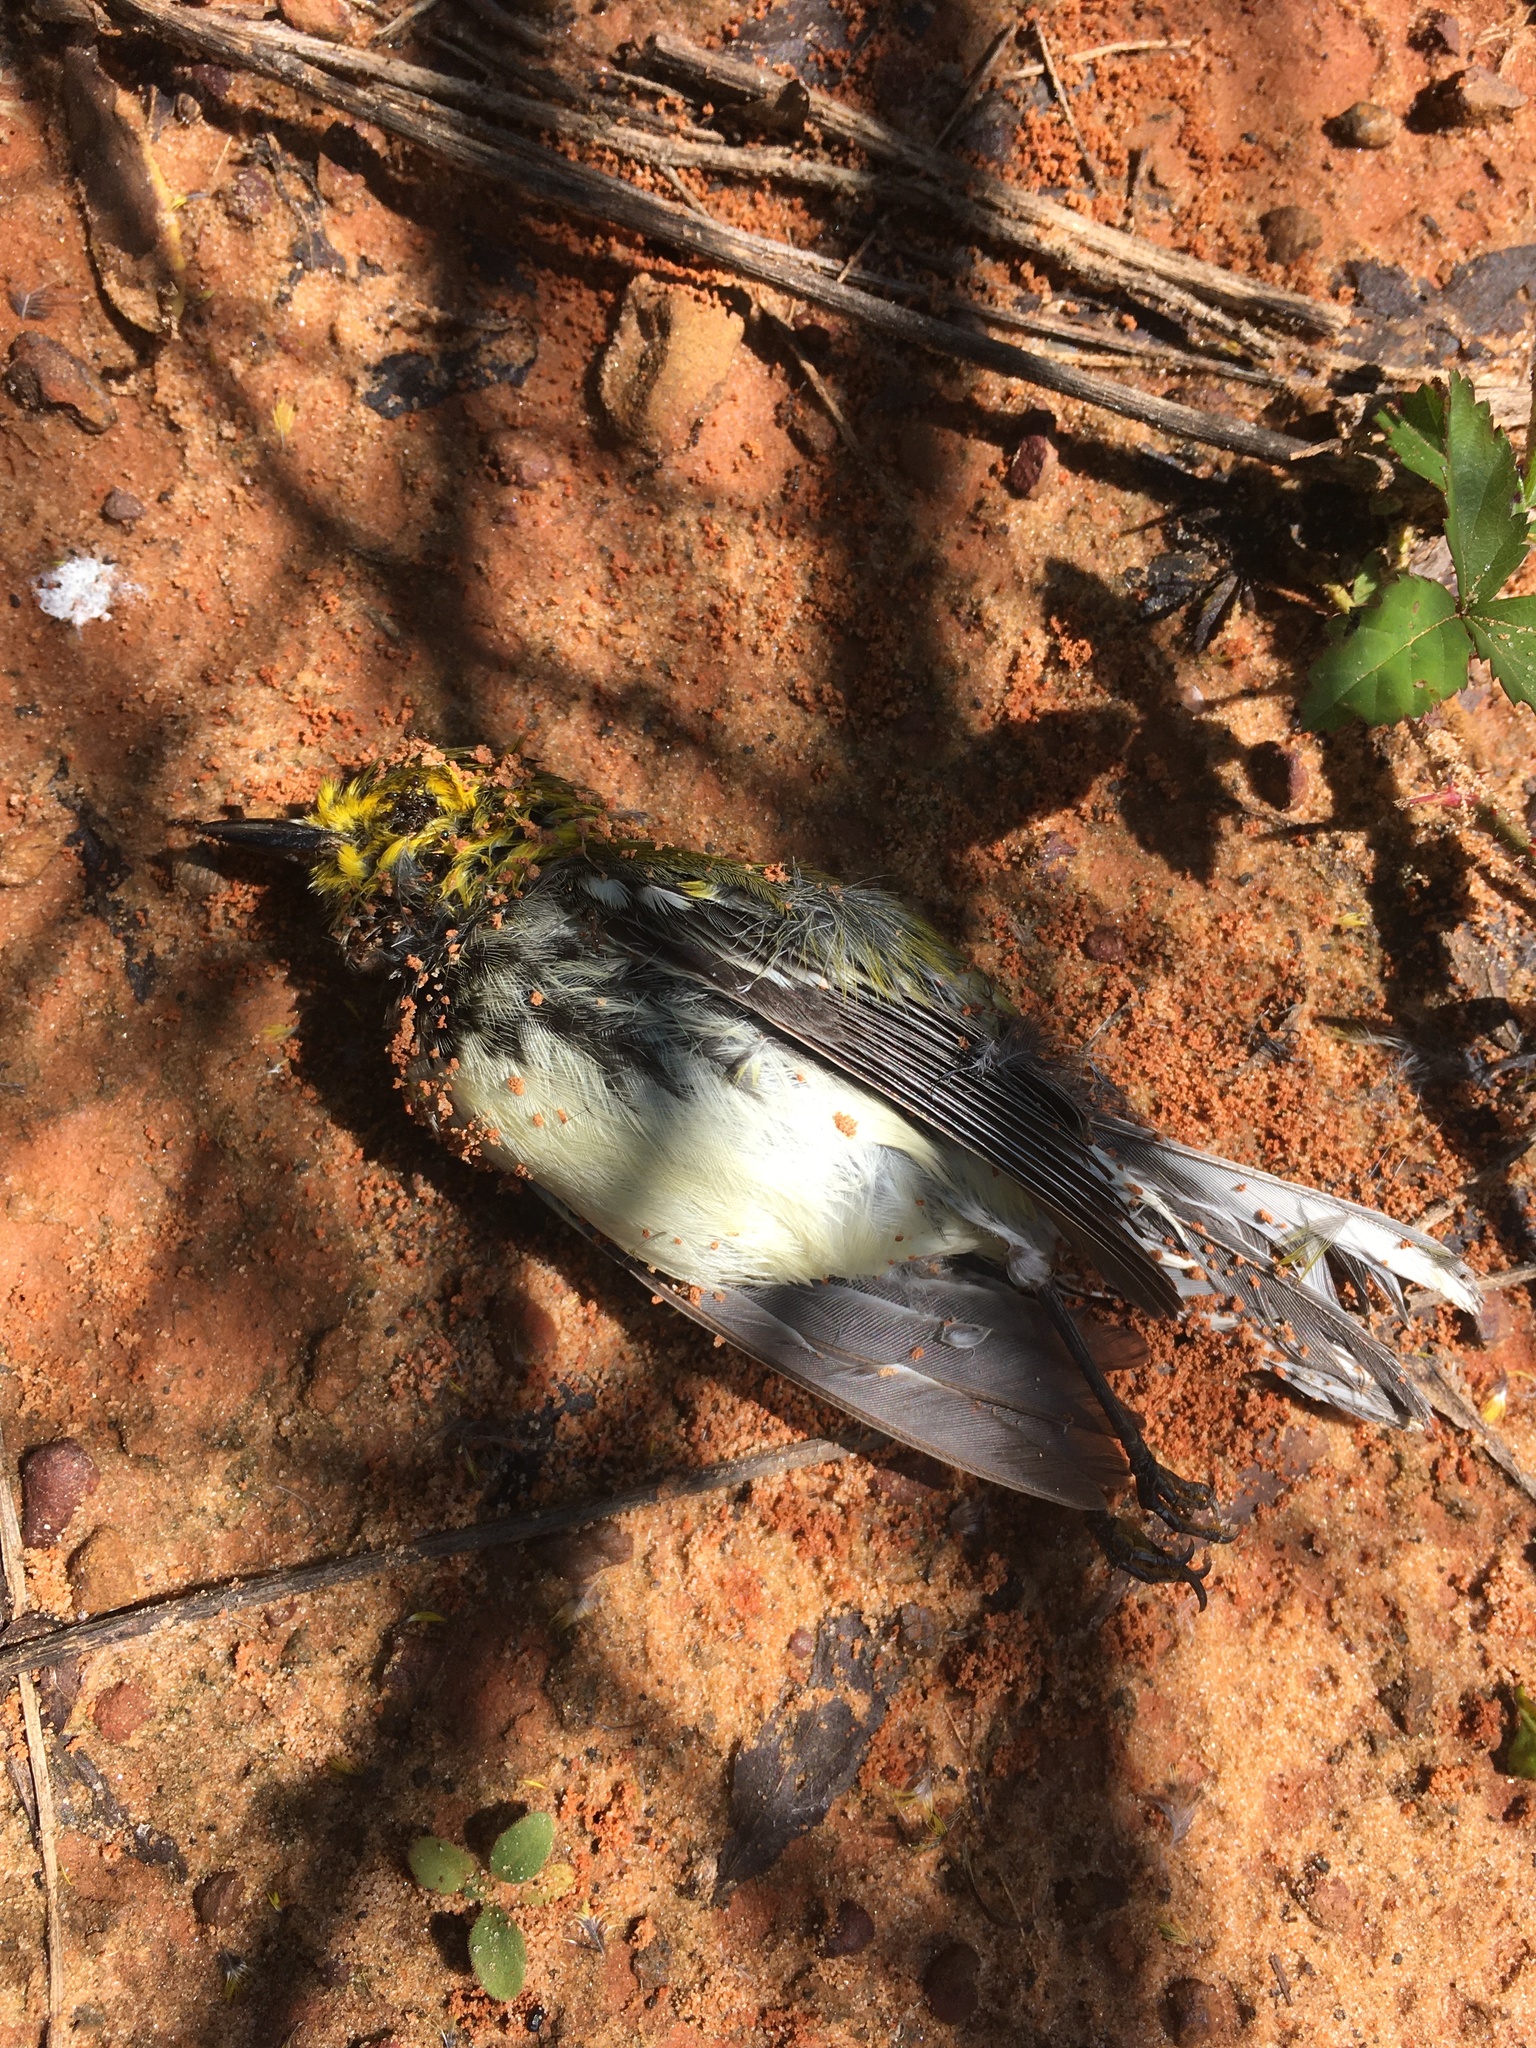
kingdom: Animalia
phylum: Chordata
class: Aves
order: Passeriformes
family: Parulidae
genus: Setophaga
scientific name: Setophaga virens
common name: Black-throated green warbler
